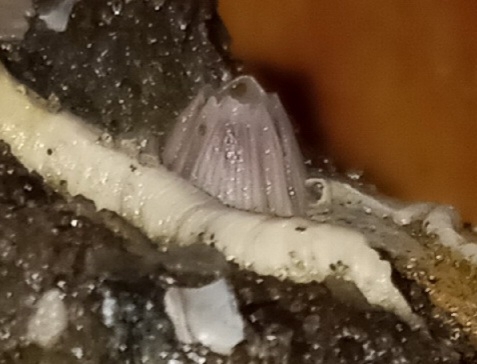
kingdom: Animalia
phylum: Arthropoda
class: Maxillopoda
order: Sessilia
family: Balanidae
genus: Amphibalanus
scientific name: Amphibalanus venustus
